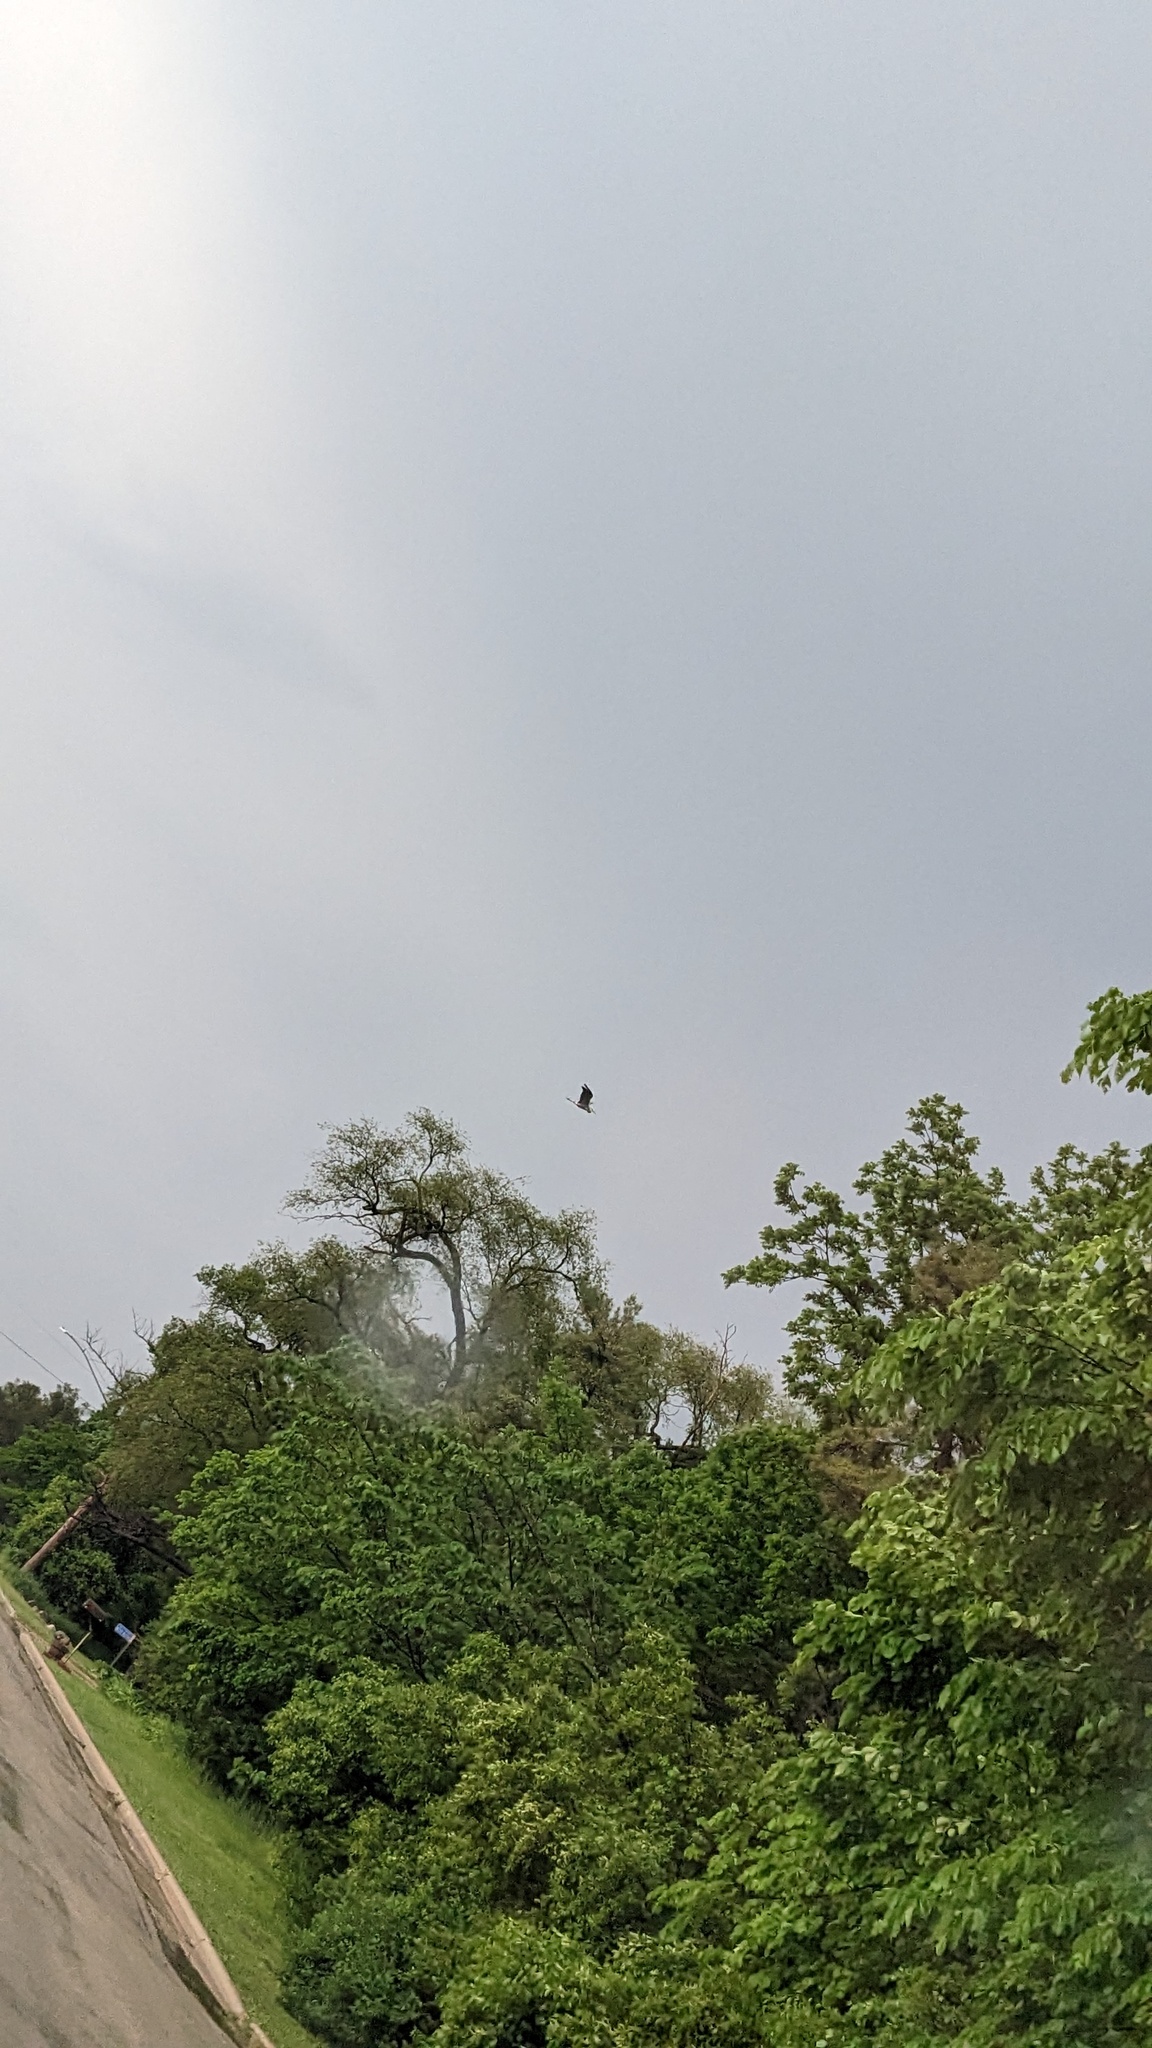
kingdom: Animalia
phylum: Chordata
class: Aves
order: Pelecaniformes
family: Ardeidae
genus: Ardea
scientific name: Ardea herodias
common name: Great blue heron
